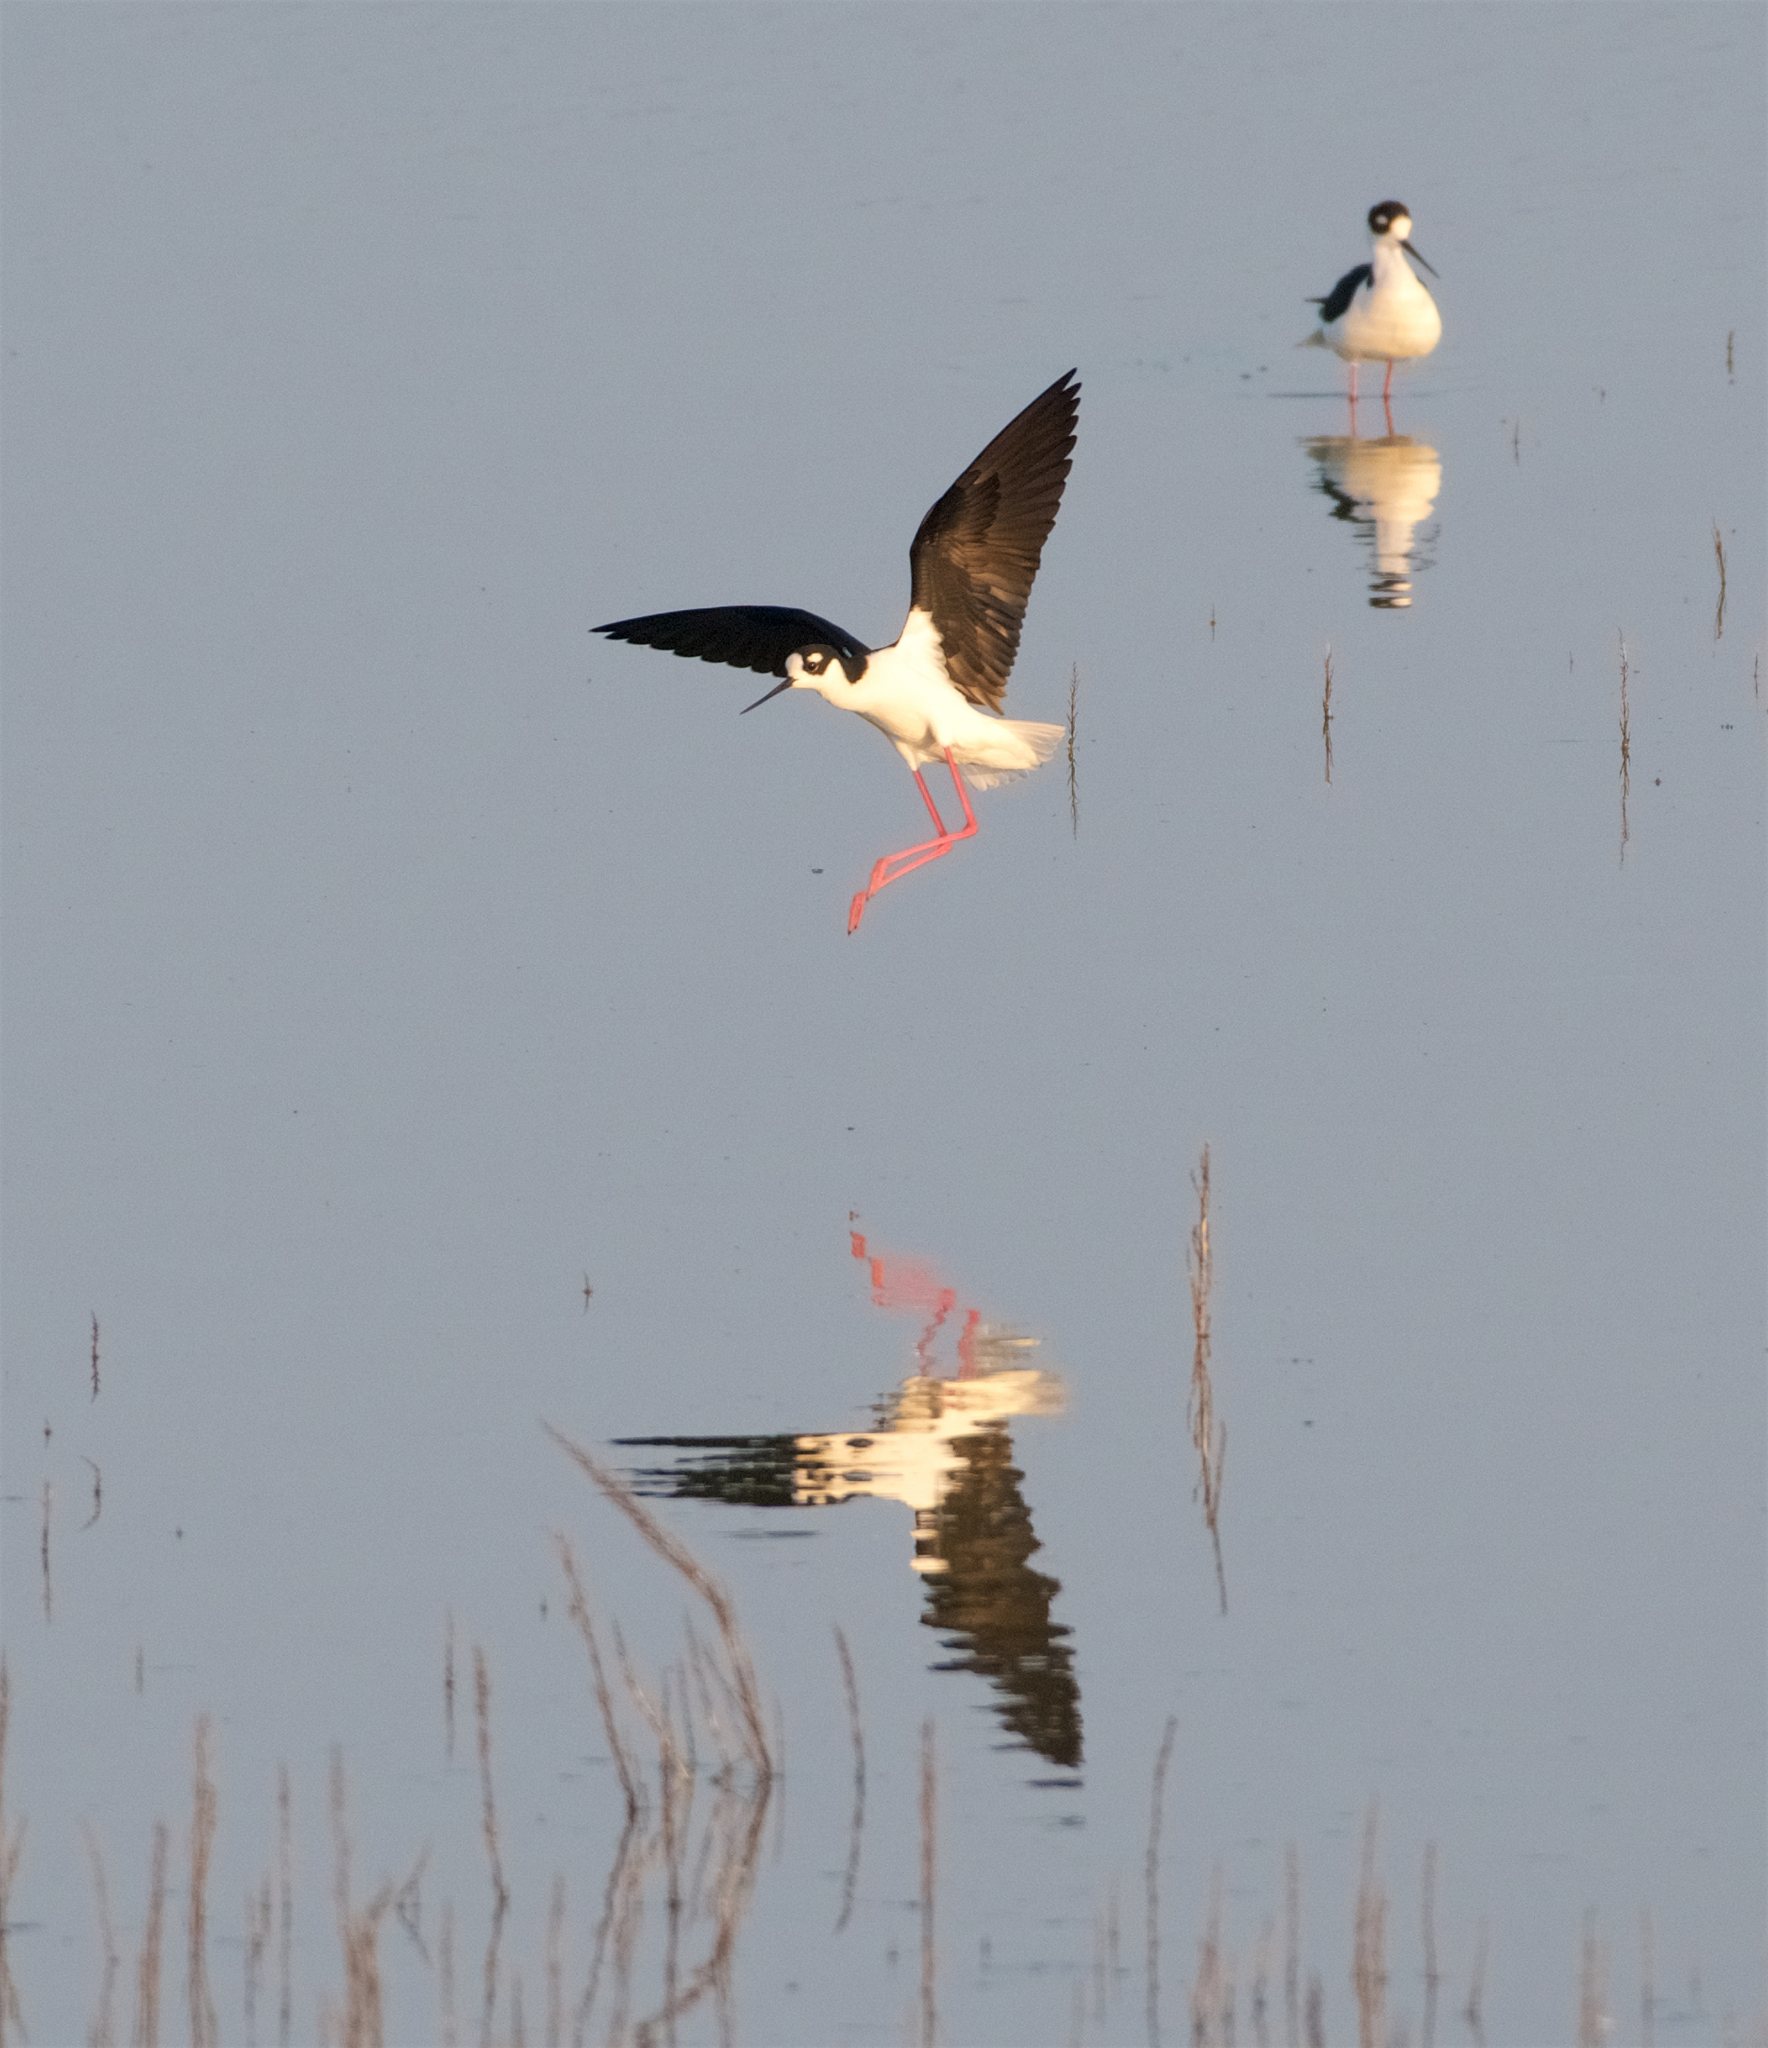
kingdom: Animalia
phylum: Chordata
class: Aves
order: Charadriiformes
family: Recurvirostridae
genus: Himantopus
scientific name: Himantopus mexicanus
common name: Black-necked stilt
